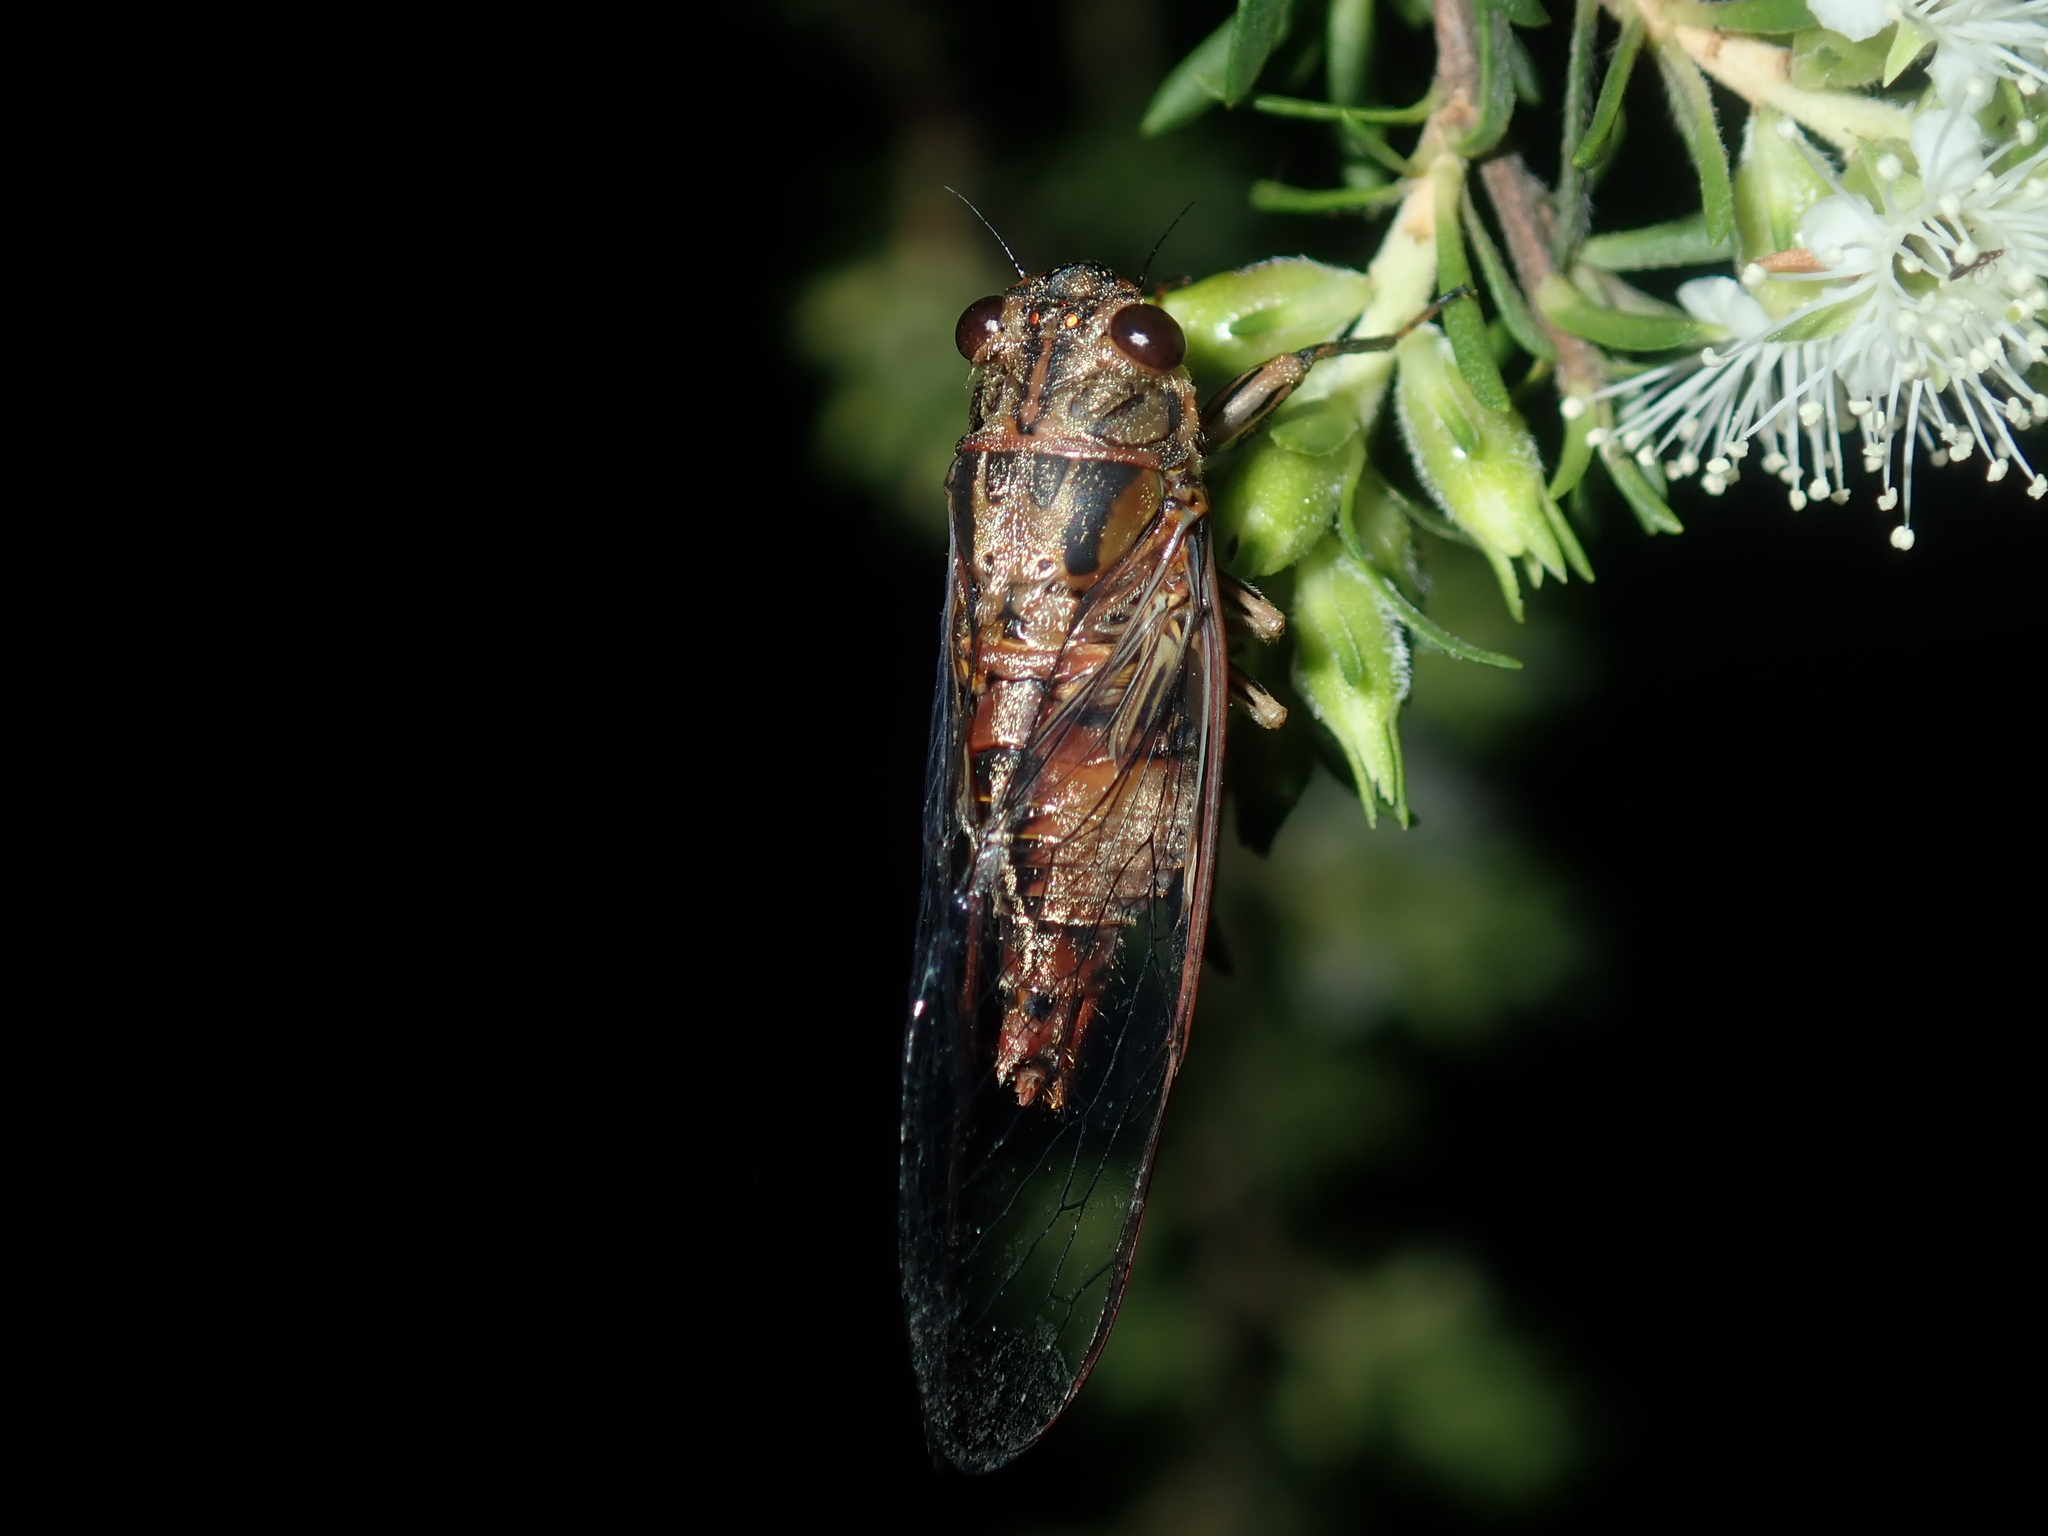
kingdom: Animalia
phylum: Arthropoda
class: Insecta
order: Hemiptera
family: Cicadidae
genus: Yoyetta
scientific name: Yoyetta celis
